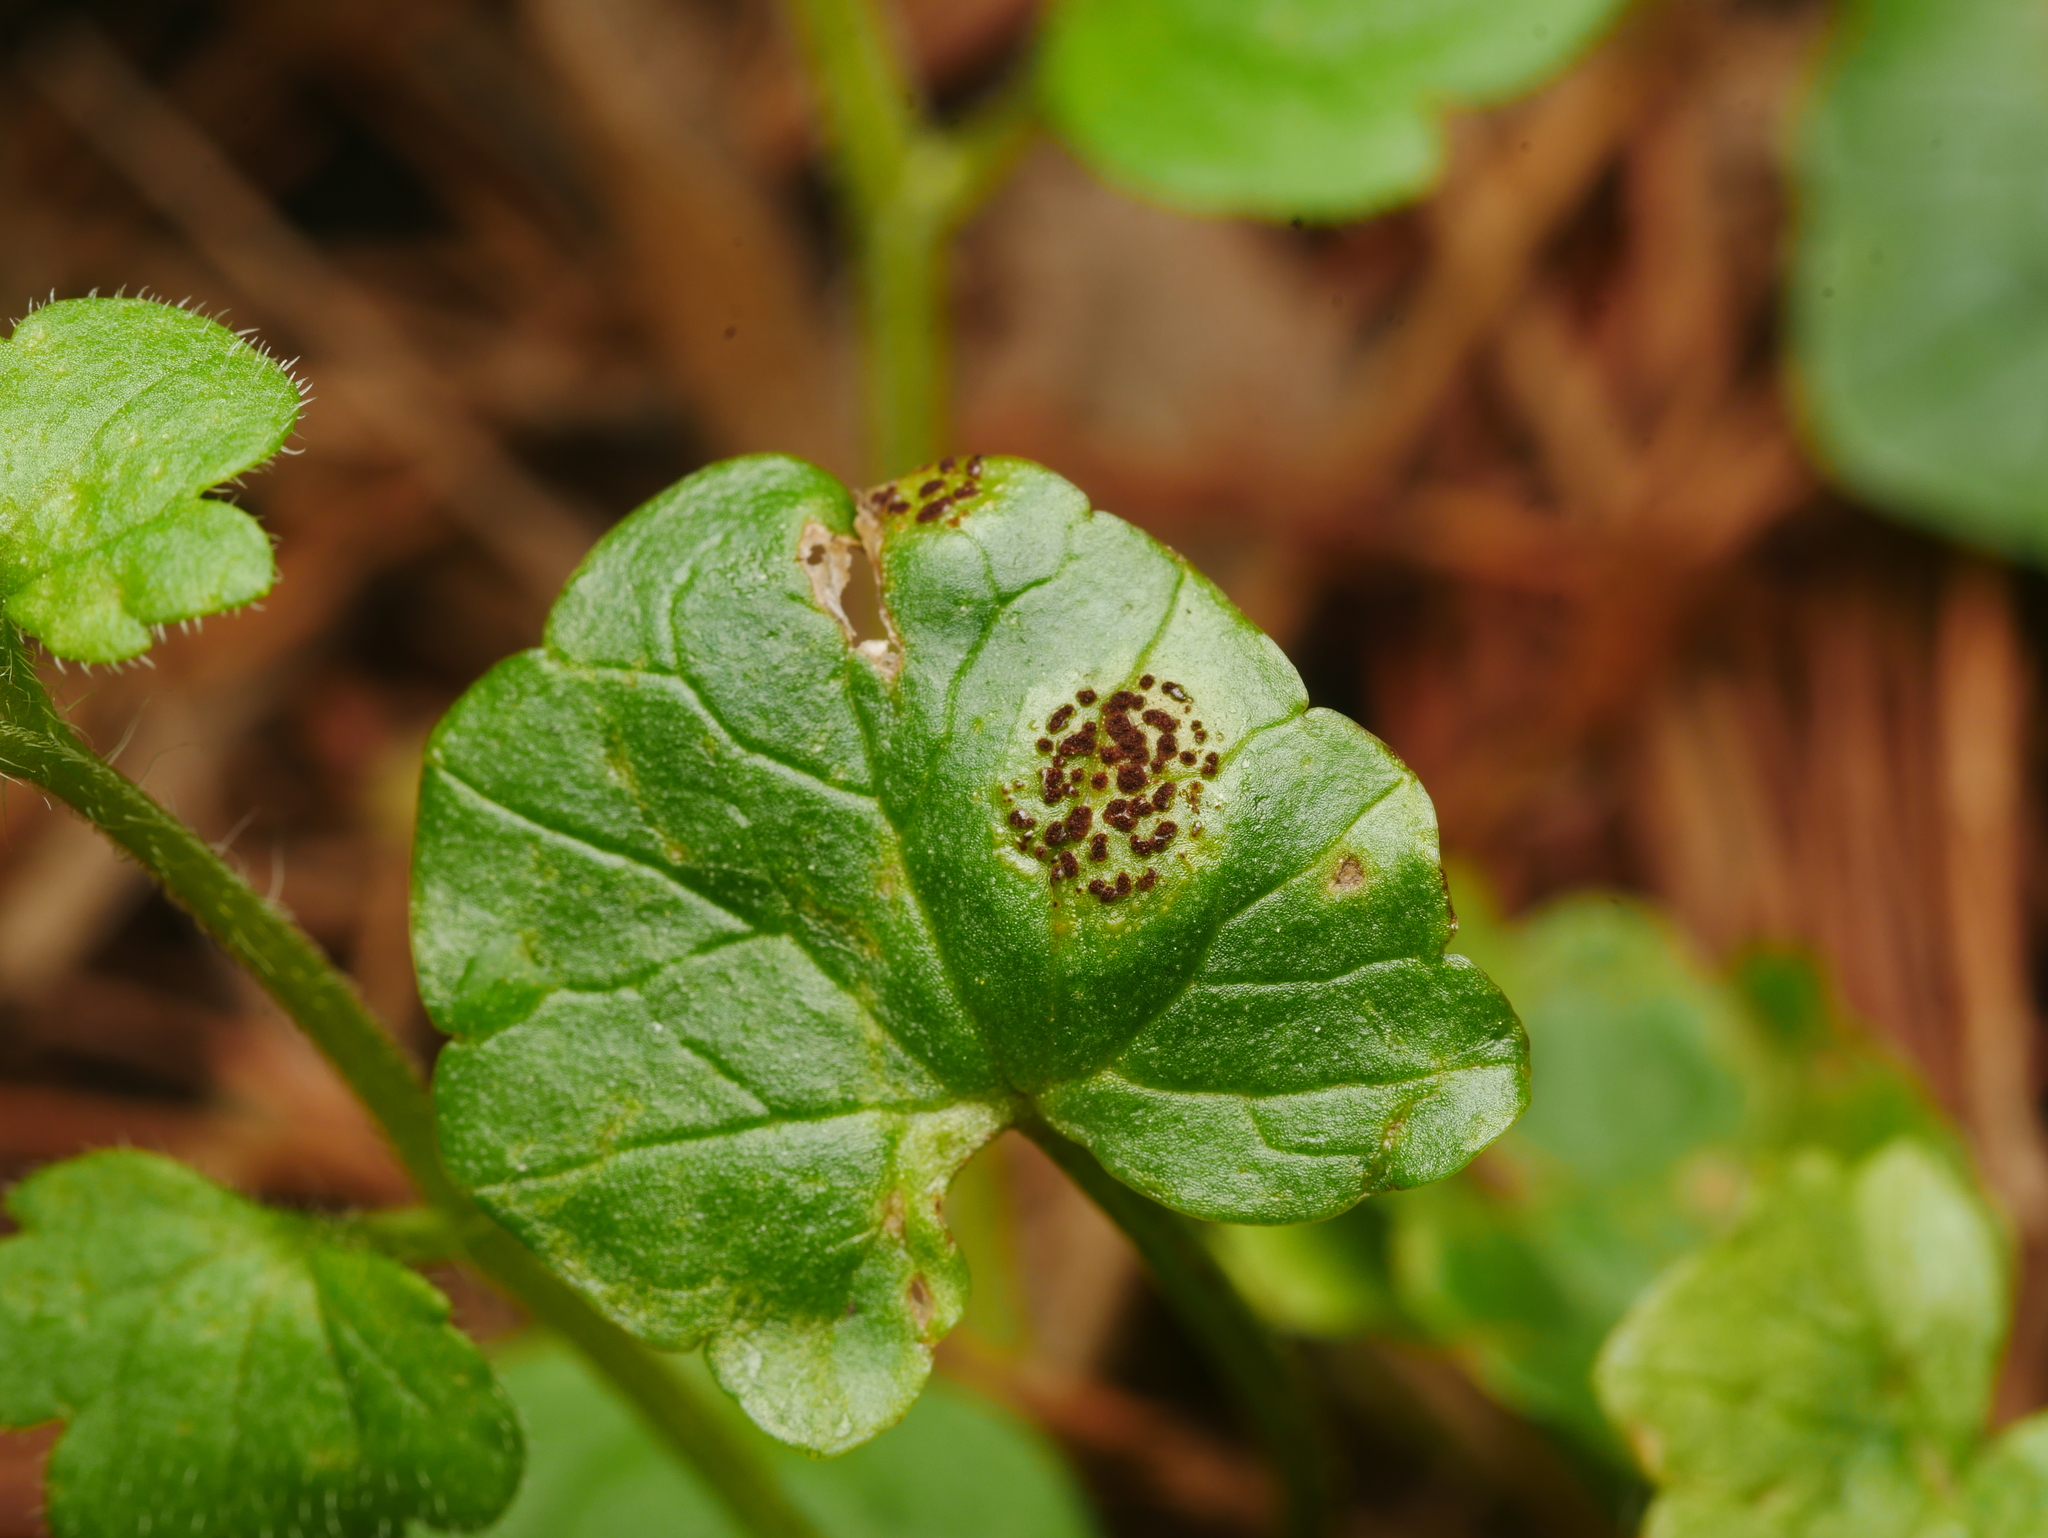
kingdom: Fungi
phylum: Basidiomycota
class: Pucciniomycetes
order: Pucciniales
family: Pucciniaceae
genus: Uromyces
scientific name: Uromyces ficariae
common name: Bitter chocolate rust
